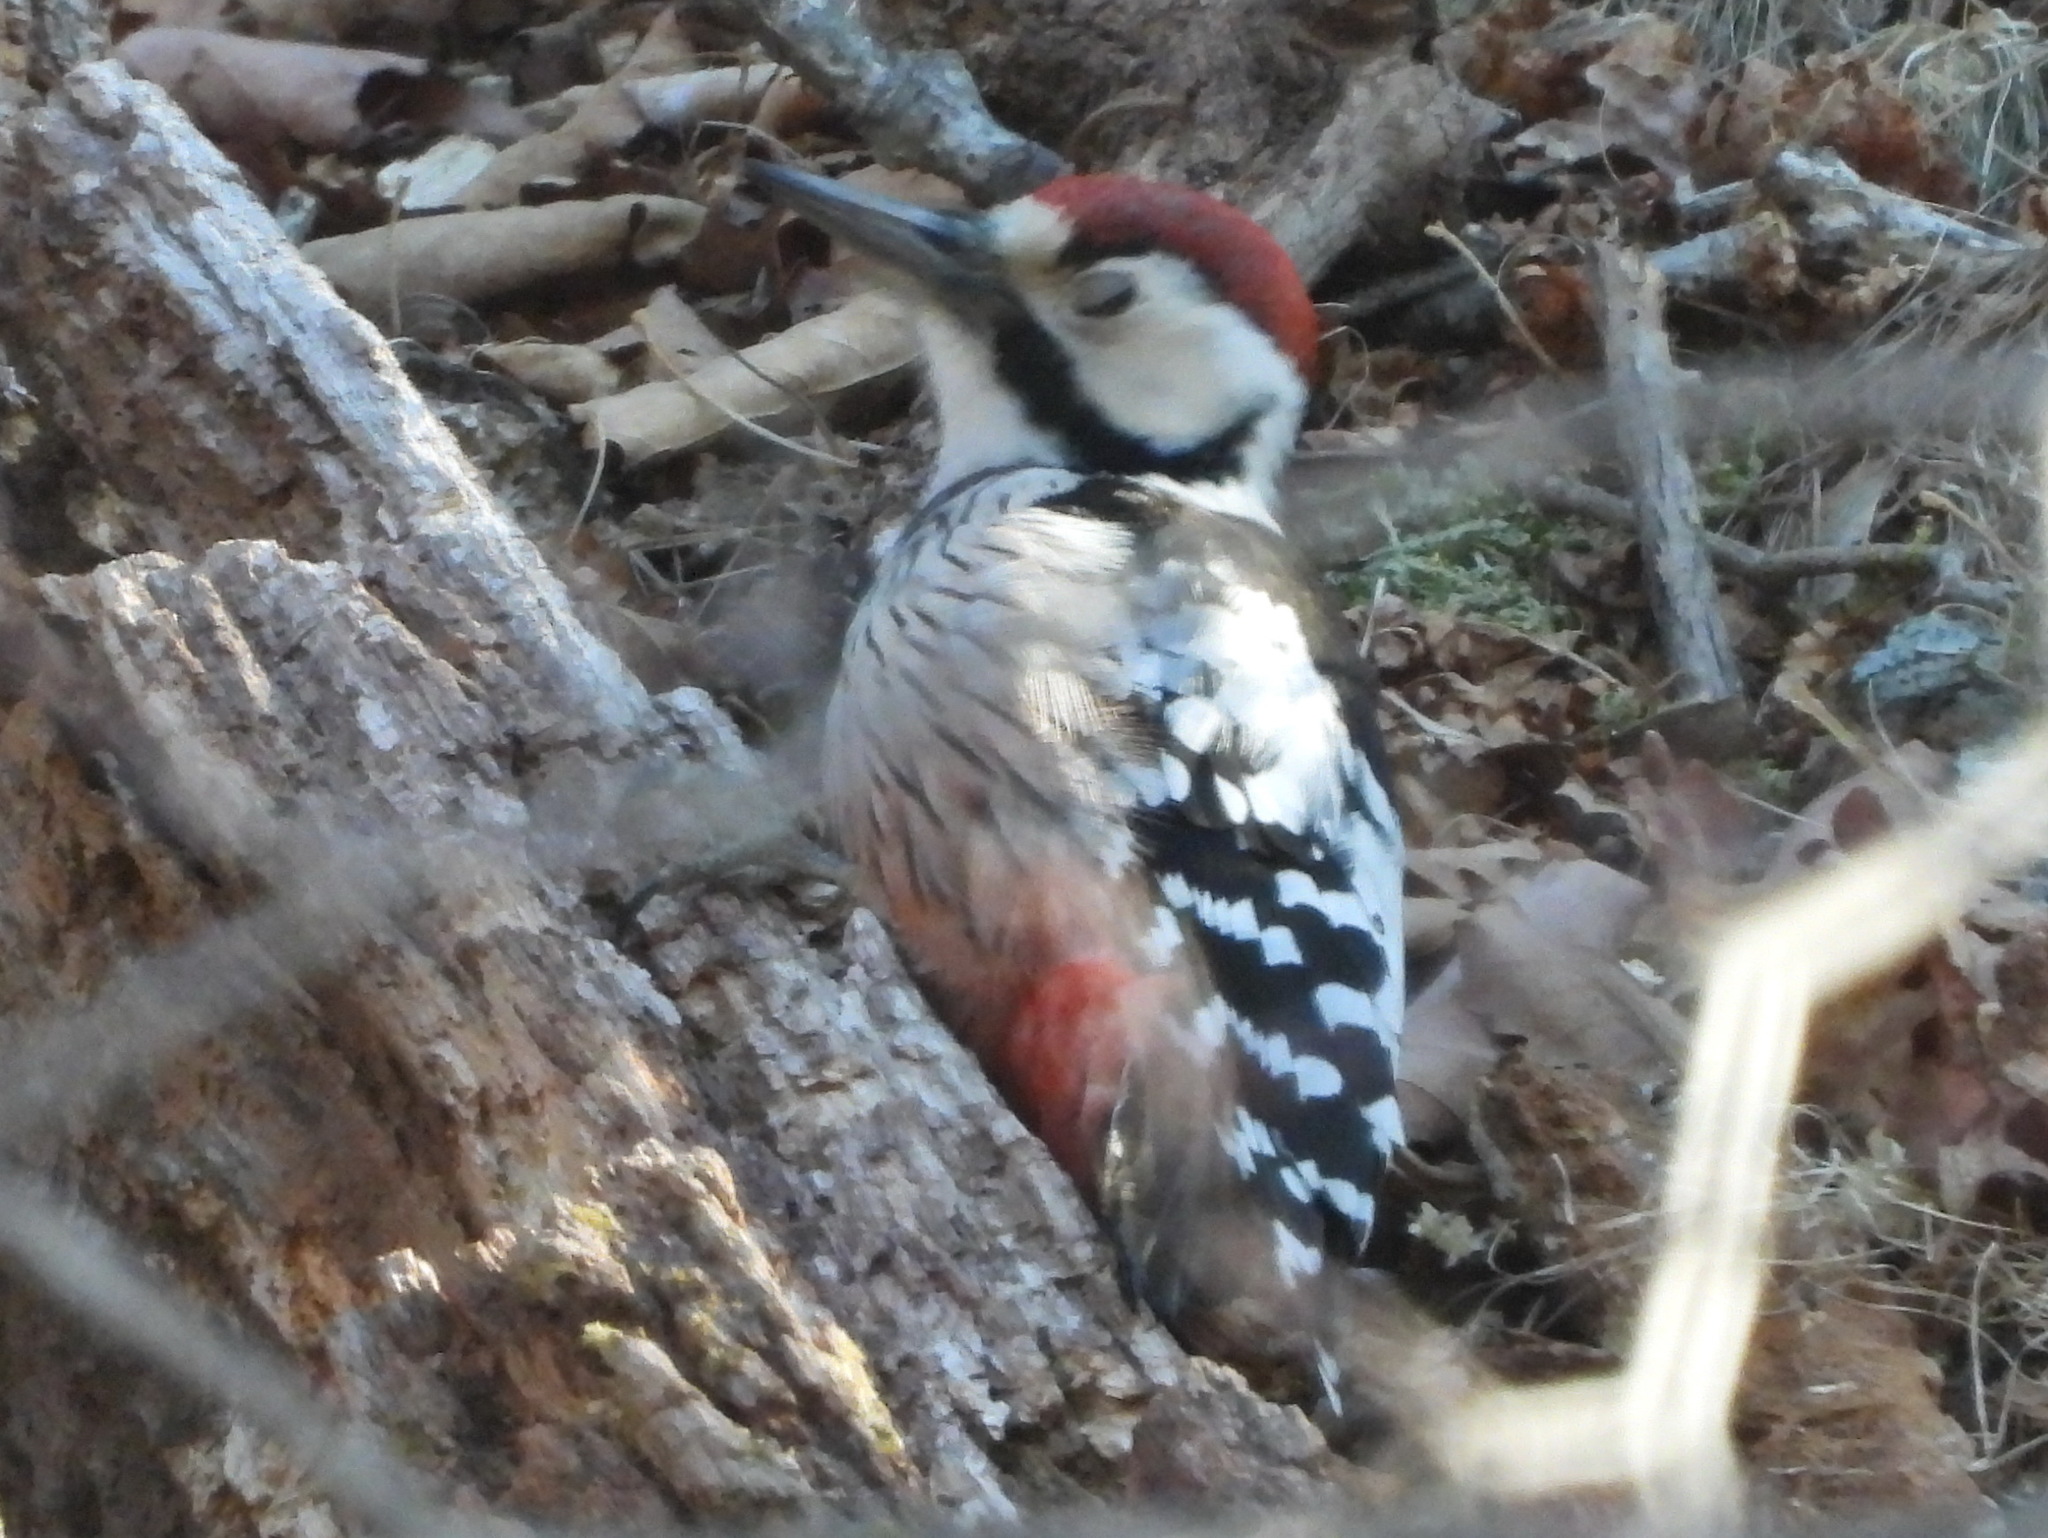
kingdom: Animalia
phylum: Chordata
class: Aves
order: Piciformes
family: Picidae
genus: Dendrocopos
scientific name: Dendrocopos leucotos
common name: White-backed woodpecker
